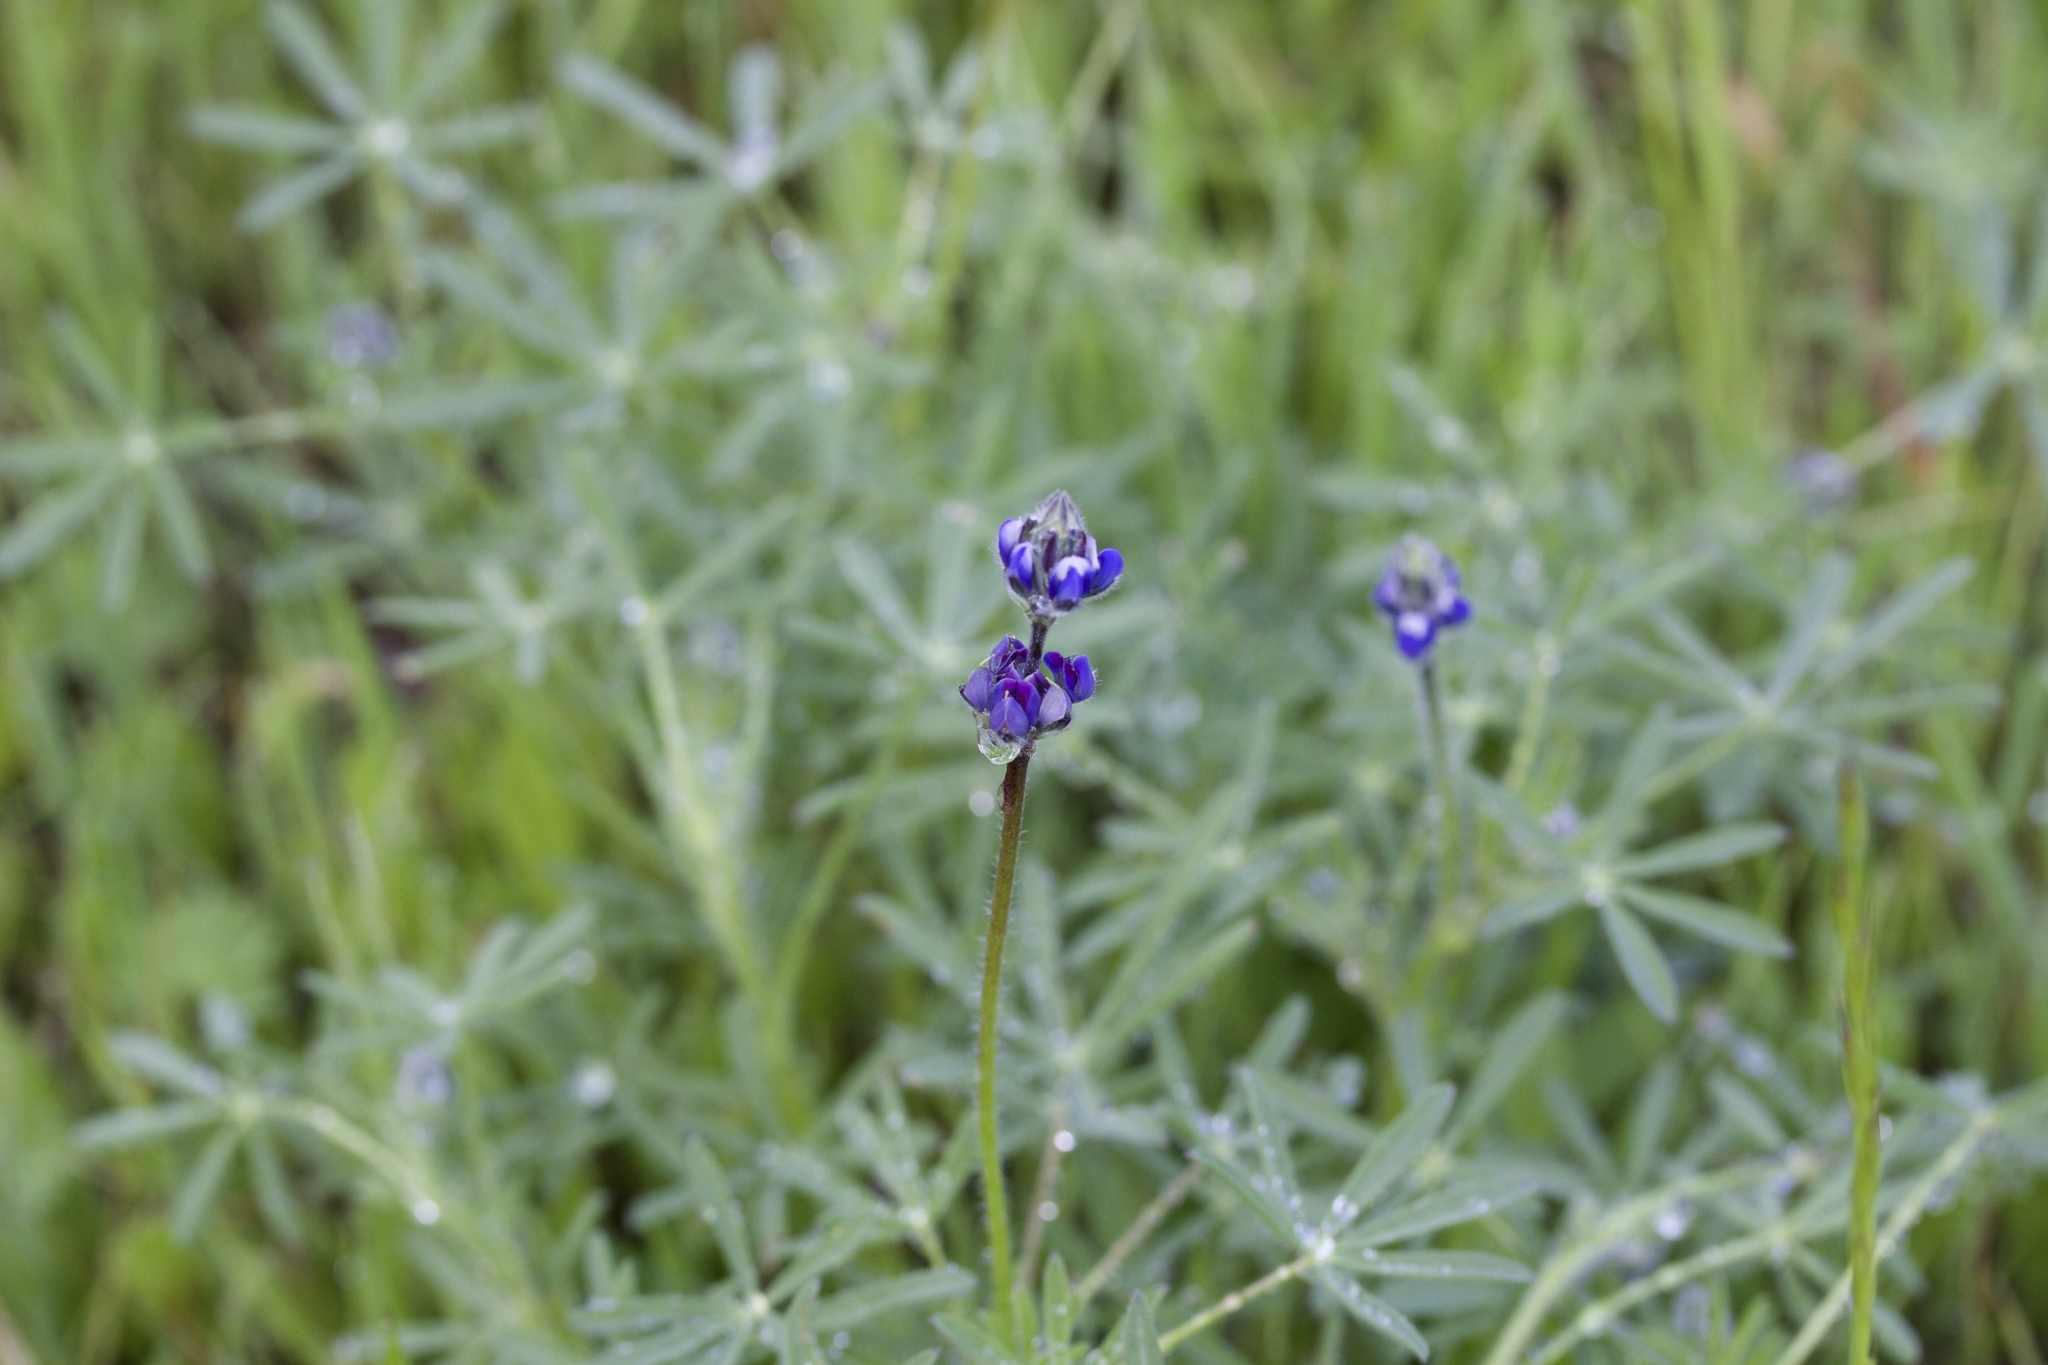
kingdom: Plantae
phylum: Tracheophyta
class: Magnoliopsida
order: Fabales
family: Fabaceae
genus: Lupinus
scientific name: Lupinus bicolor
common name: Miniature lupine
